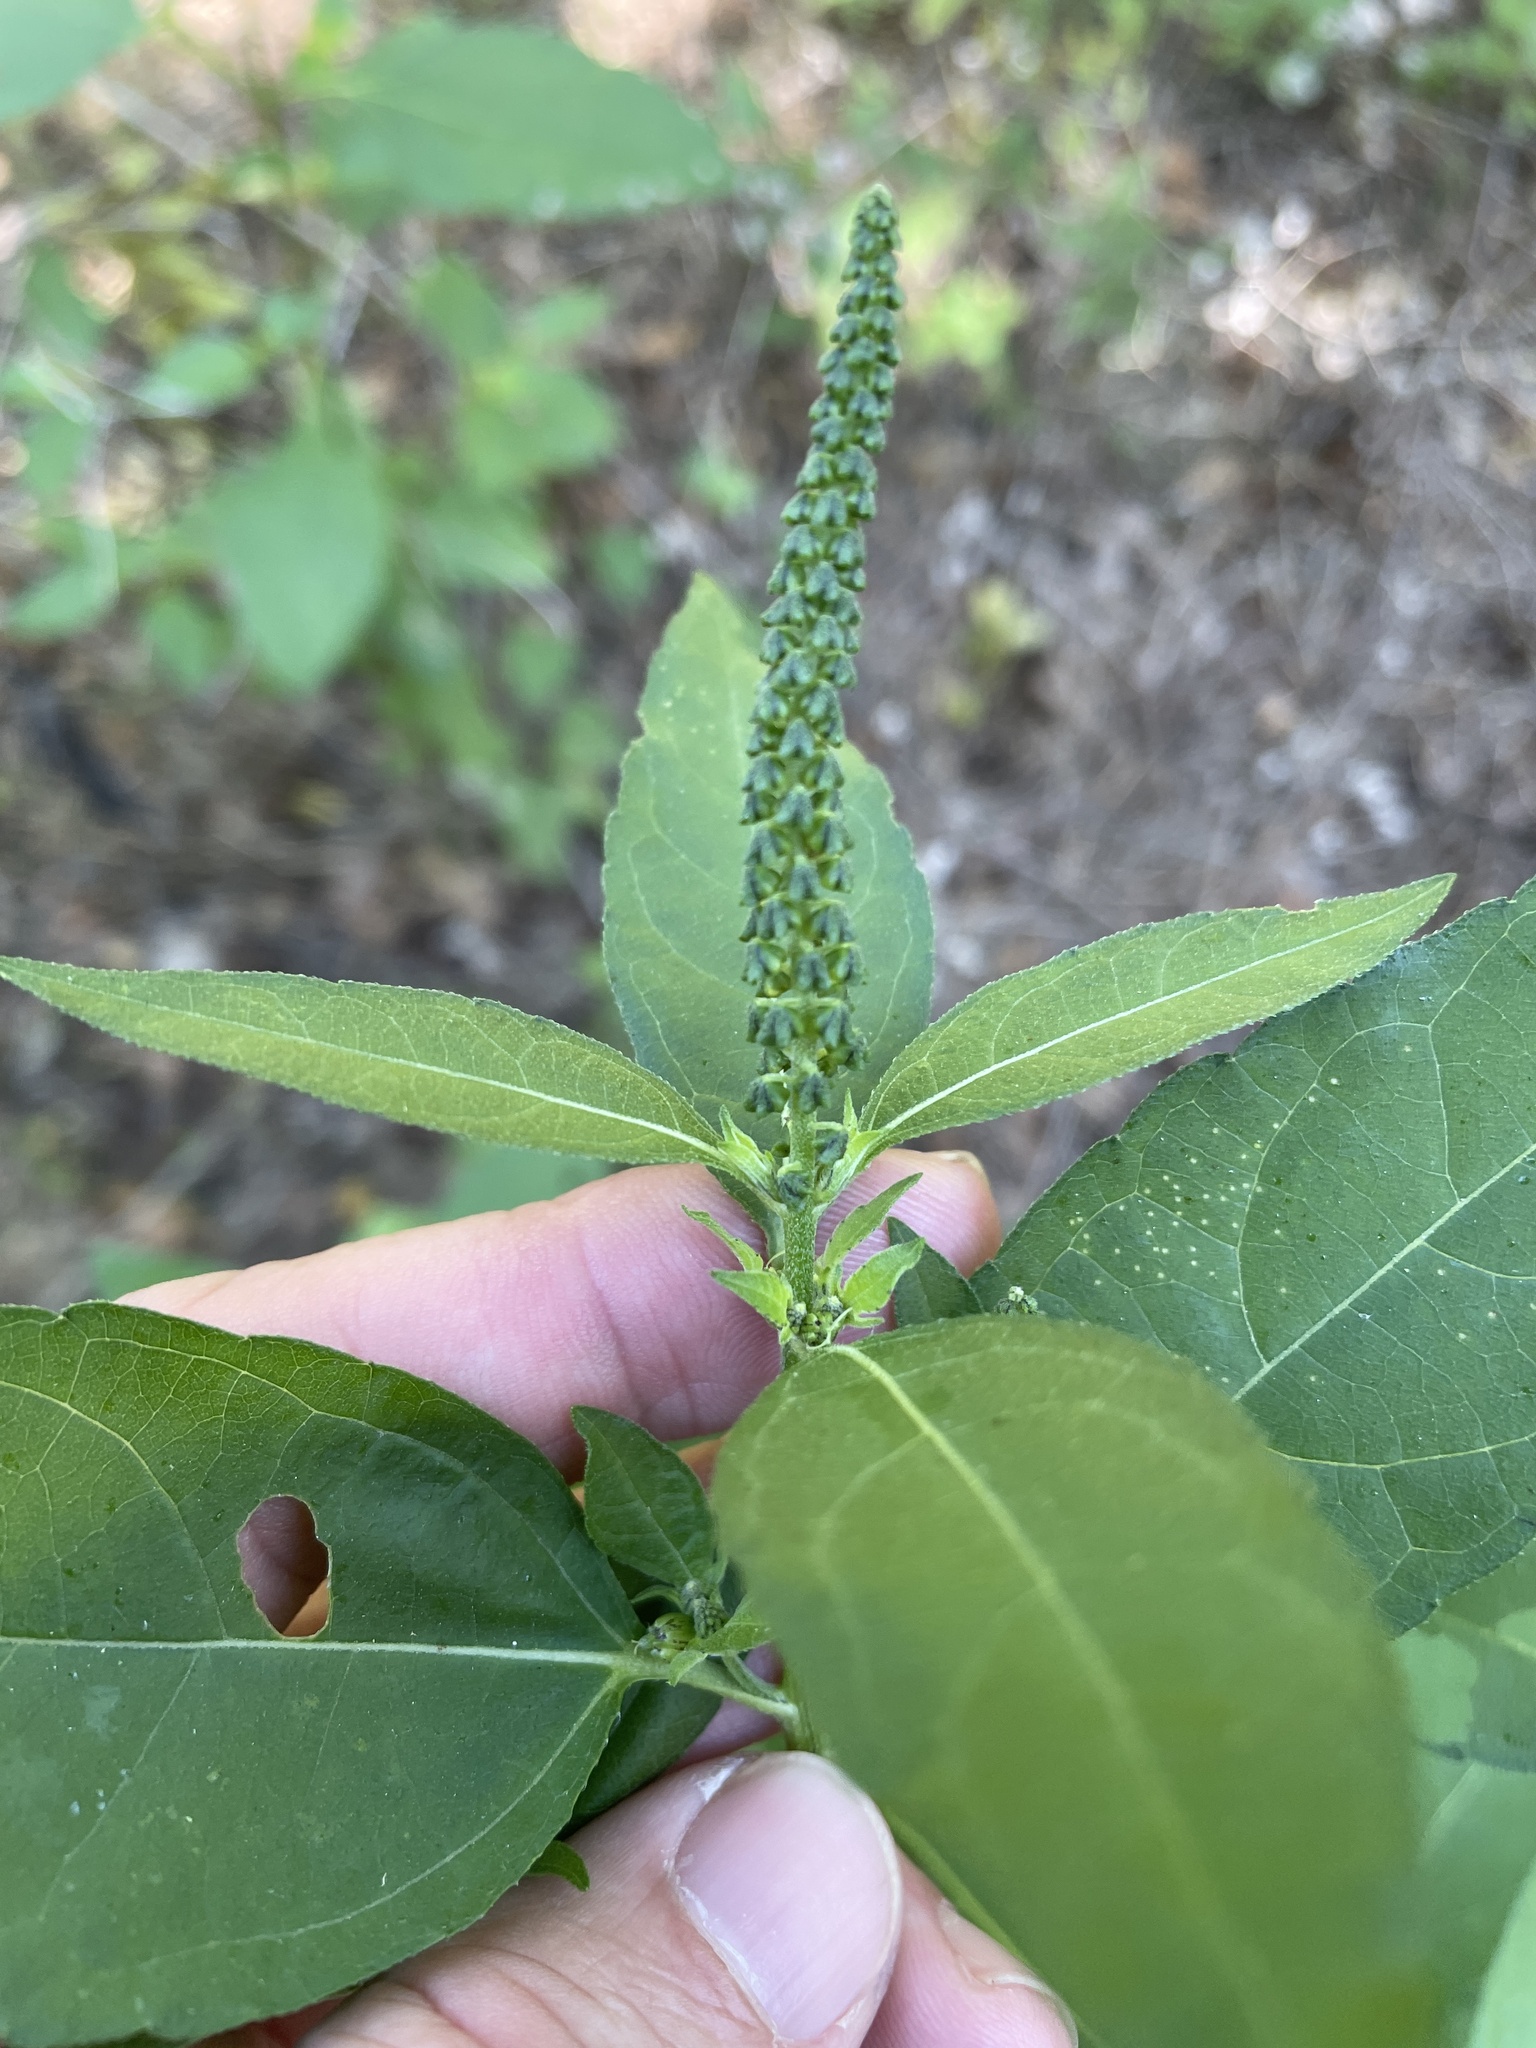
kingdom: Plantae
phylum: Tracheophyta
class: Magnoliopsida
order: Asterales
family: Asteraceae
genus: Ambrosia
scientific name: Ambrosia trifida
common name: Giant ragweed
